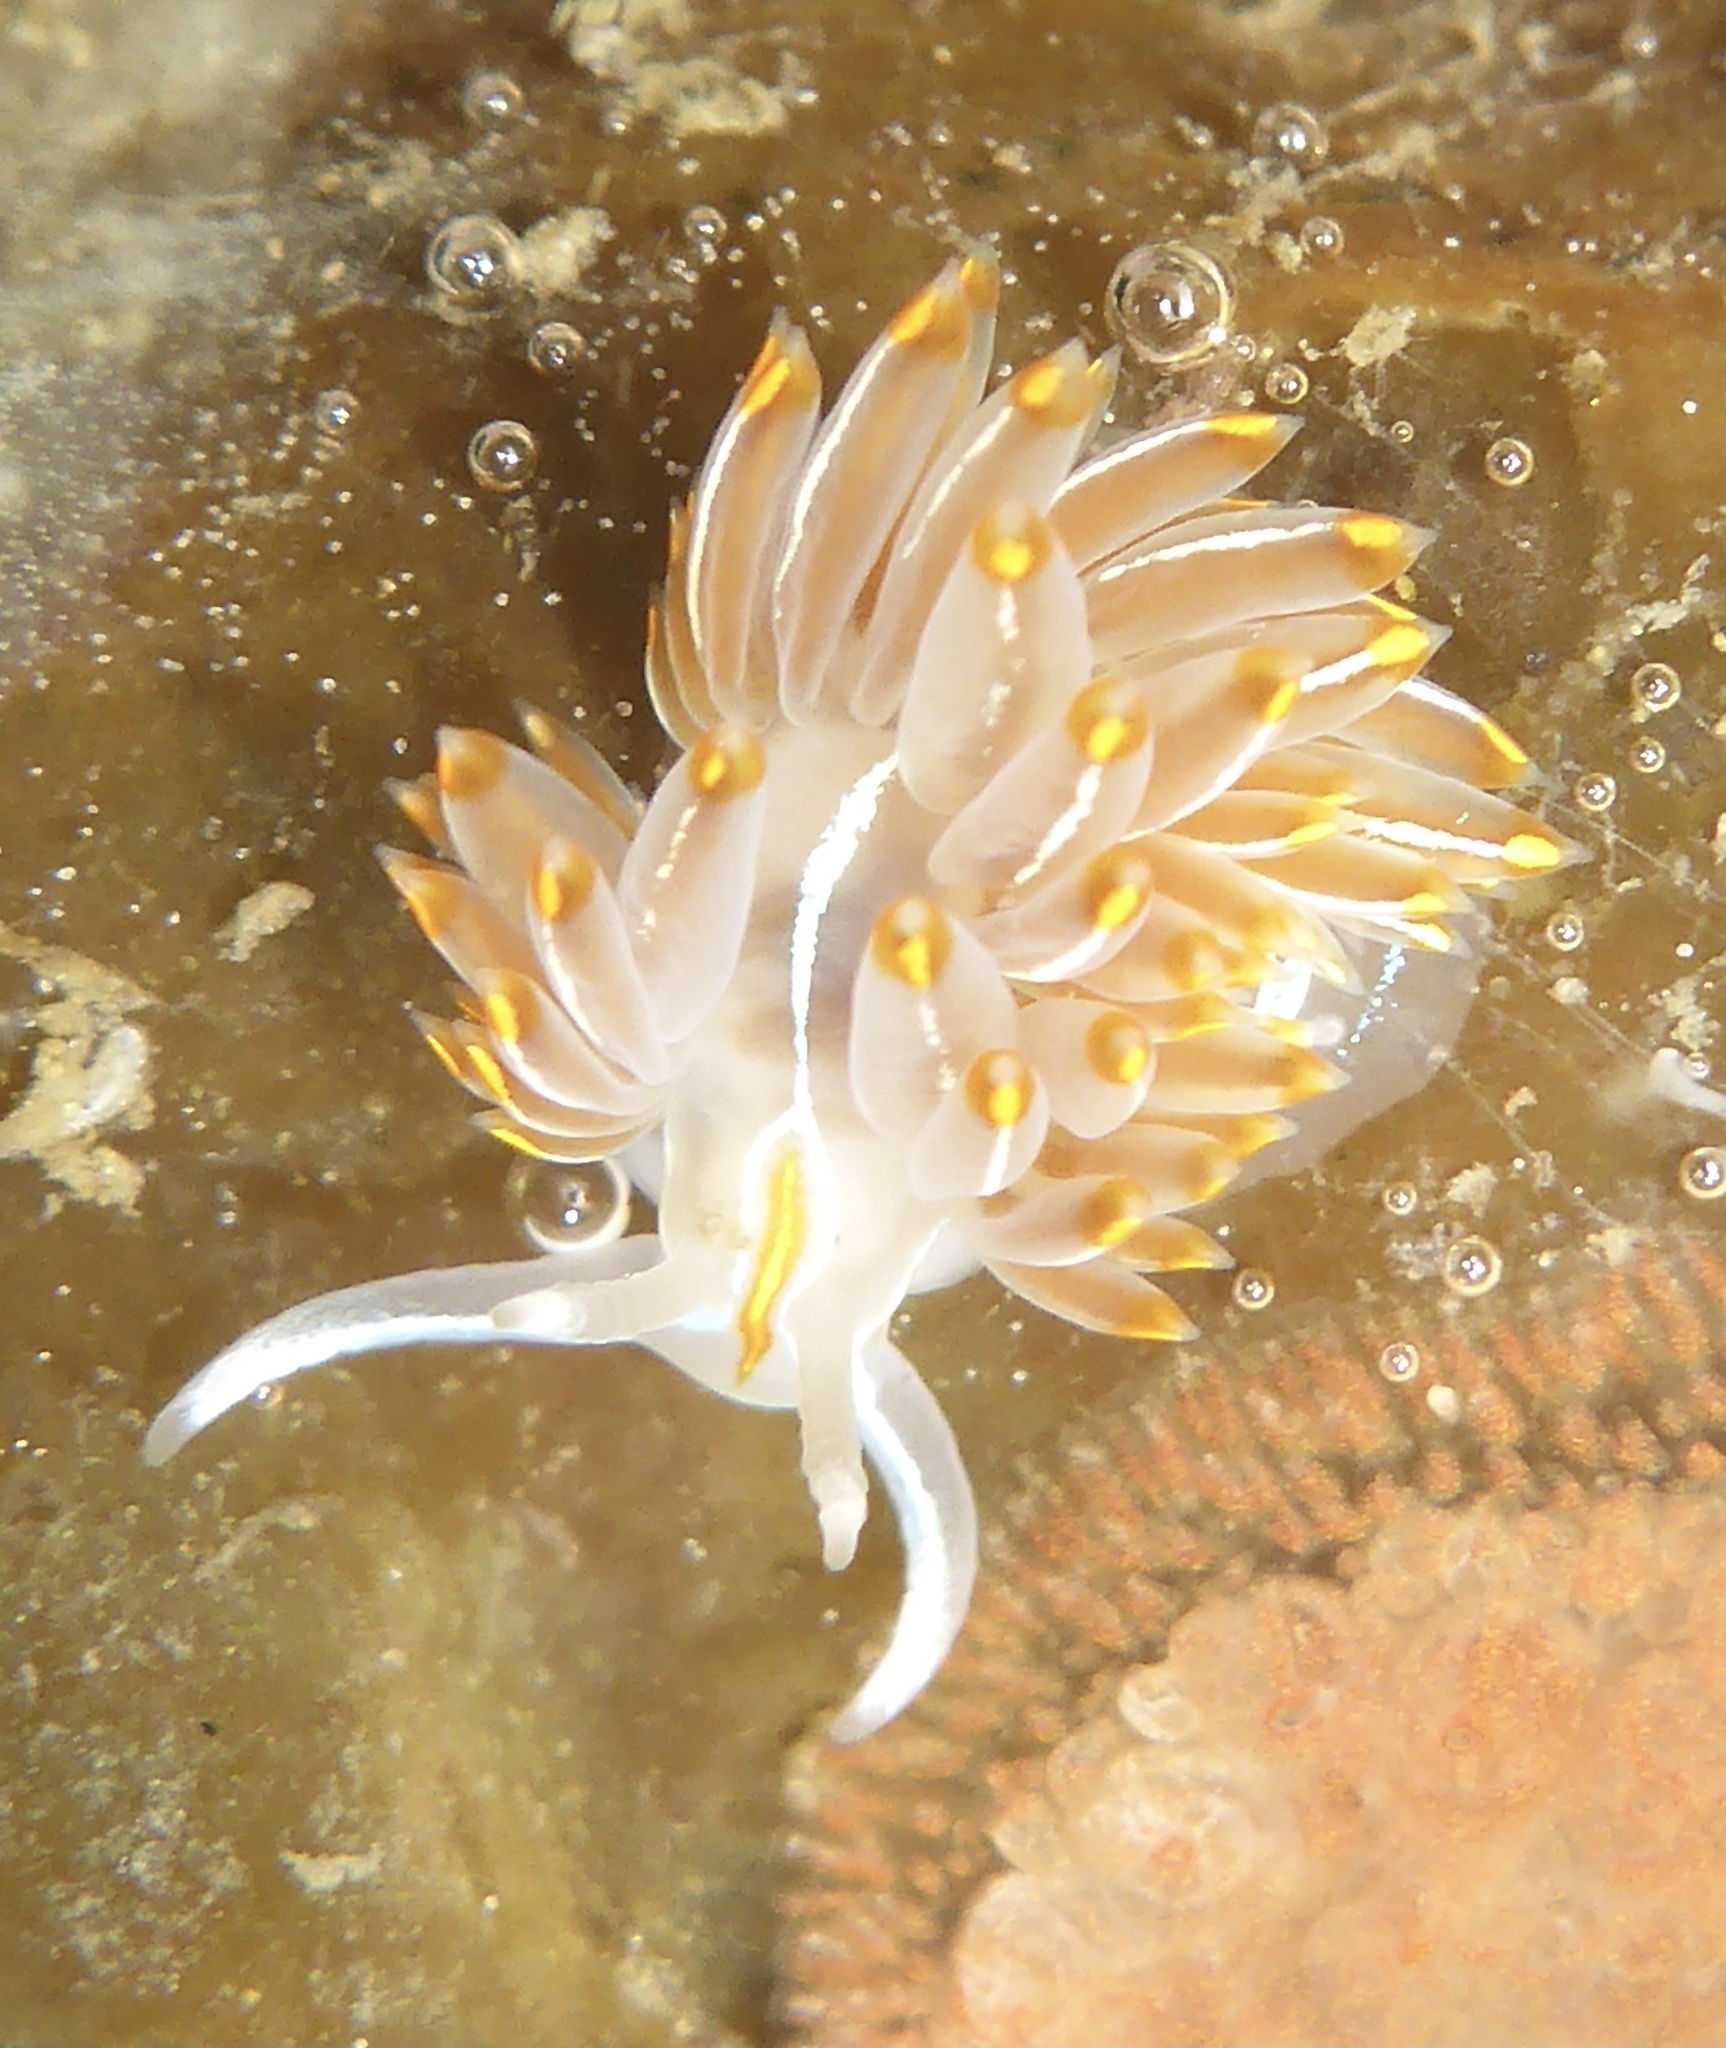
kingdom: Animalia
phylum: Mollusca
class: Gastropoda
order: Nudibranchia
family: Myrrhinidae
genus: Hermissenda
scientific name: Hermissenda crassicornis
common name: Hermissenda
